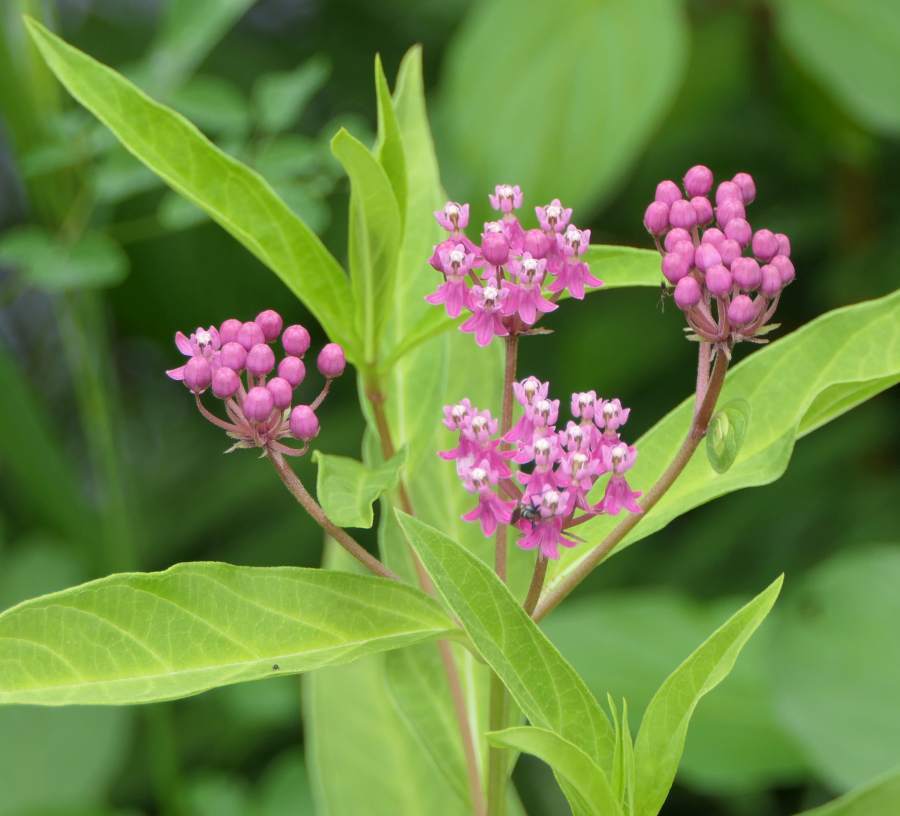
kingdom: Plantae
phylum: Tracheophyta
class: Magnoliopsida
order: Gentianales
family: Apocynaceae
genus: Asclepias
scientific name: Asclepias incarnata
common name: Swamp milkweed
